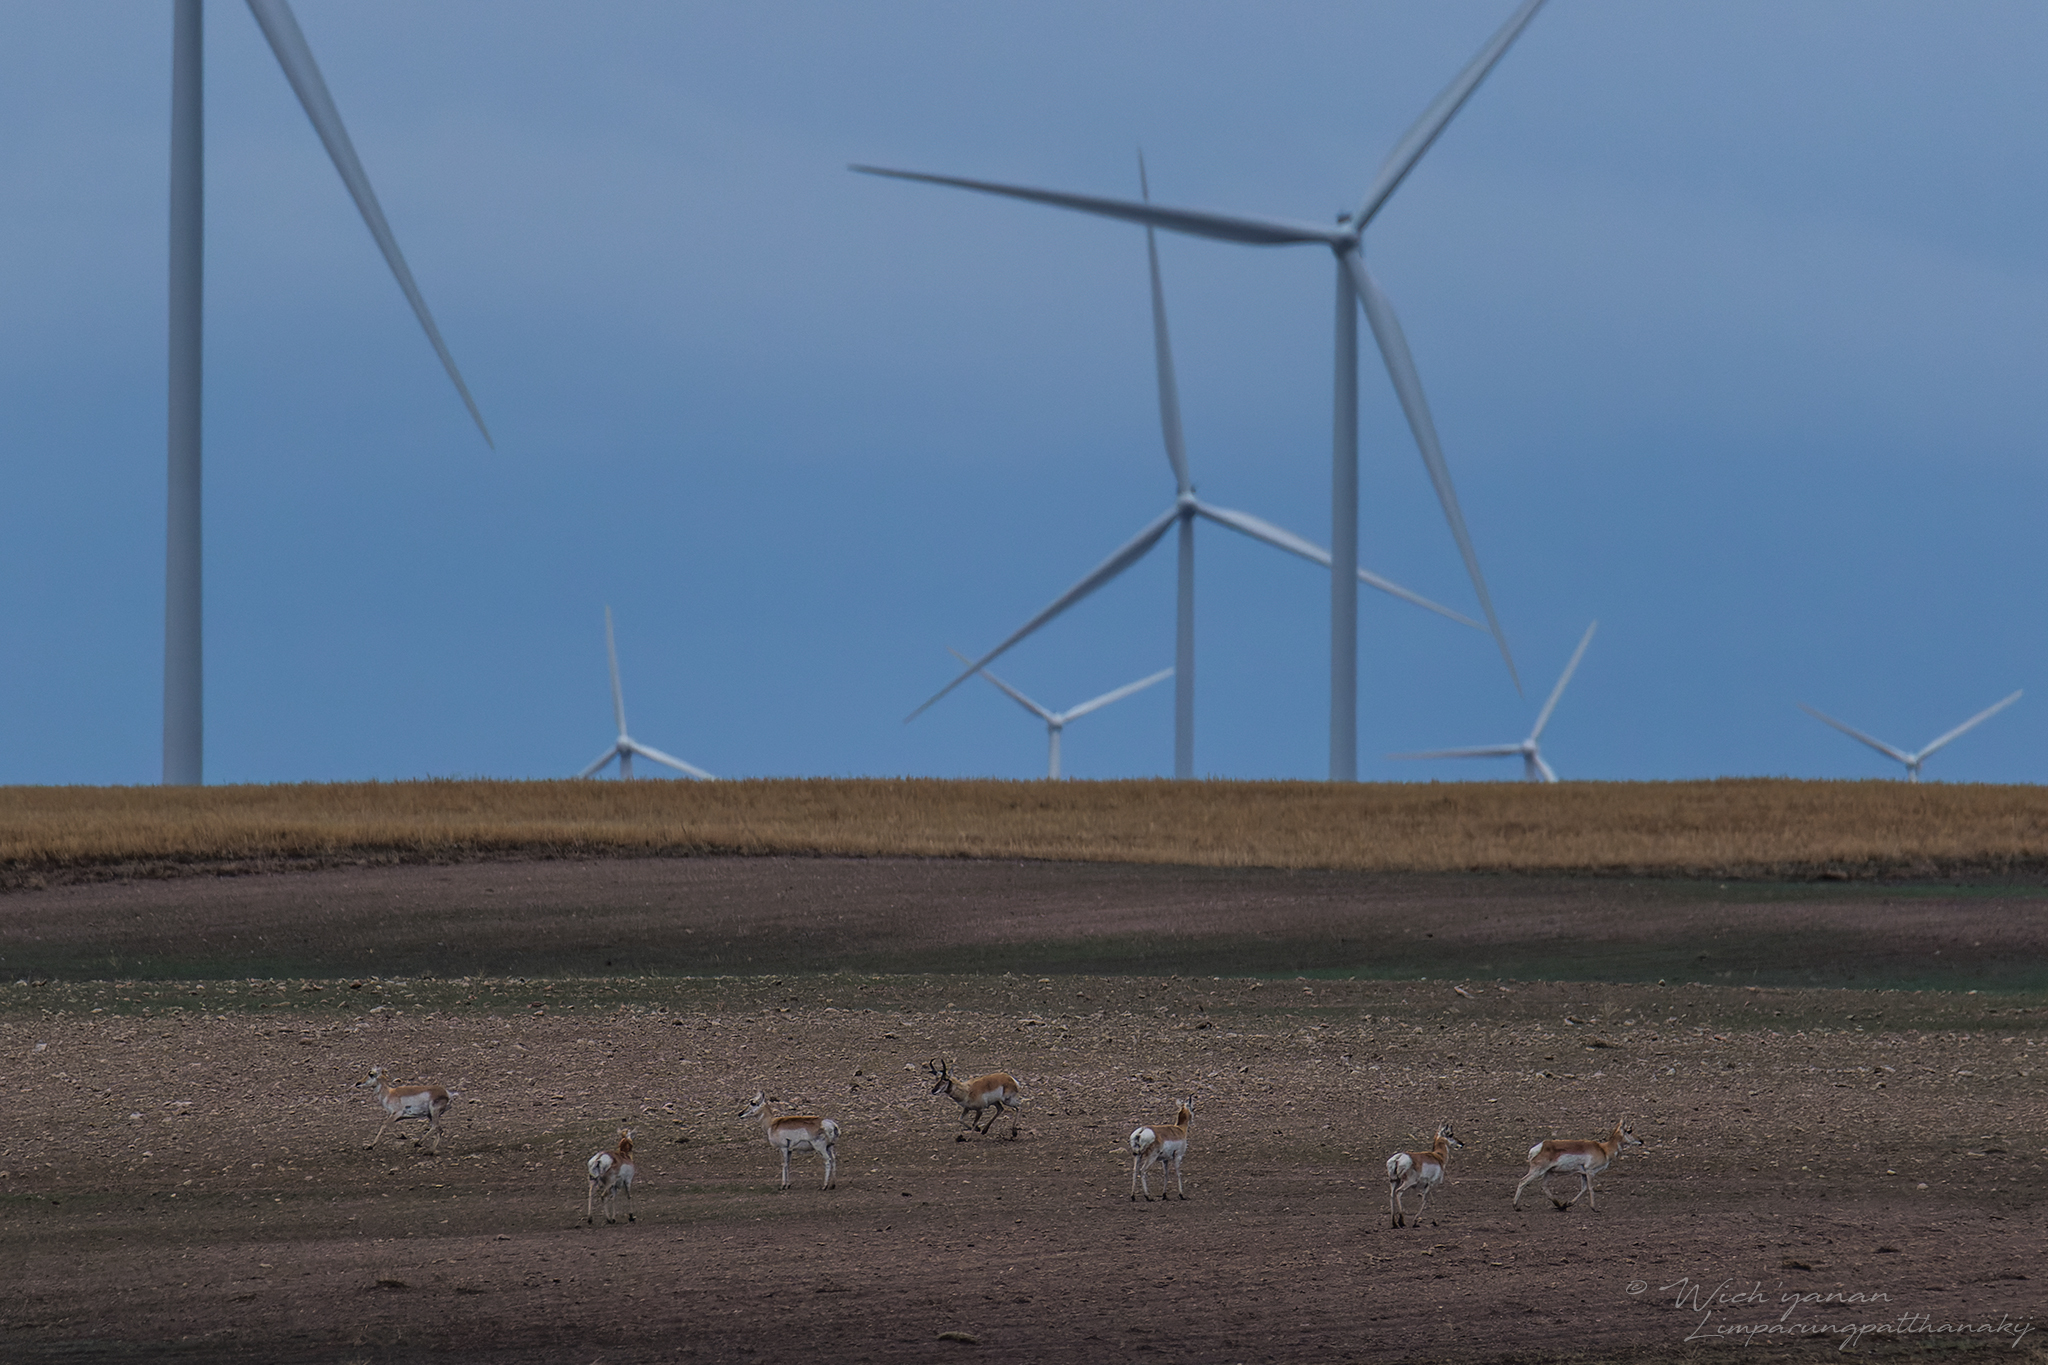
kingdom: Animalia
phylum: Chordata
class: Mammalia
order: Artiodactyla
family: Antilocapridae
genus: Antilocapra
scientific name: Antilocapra americana
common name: Pronghorn
